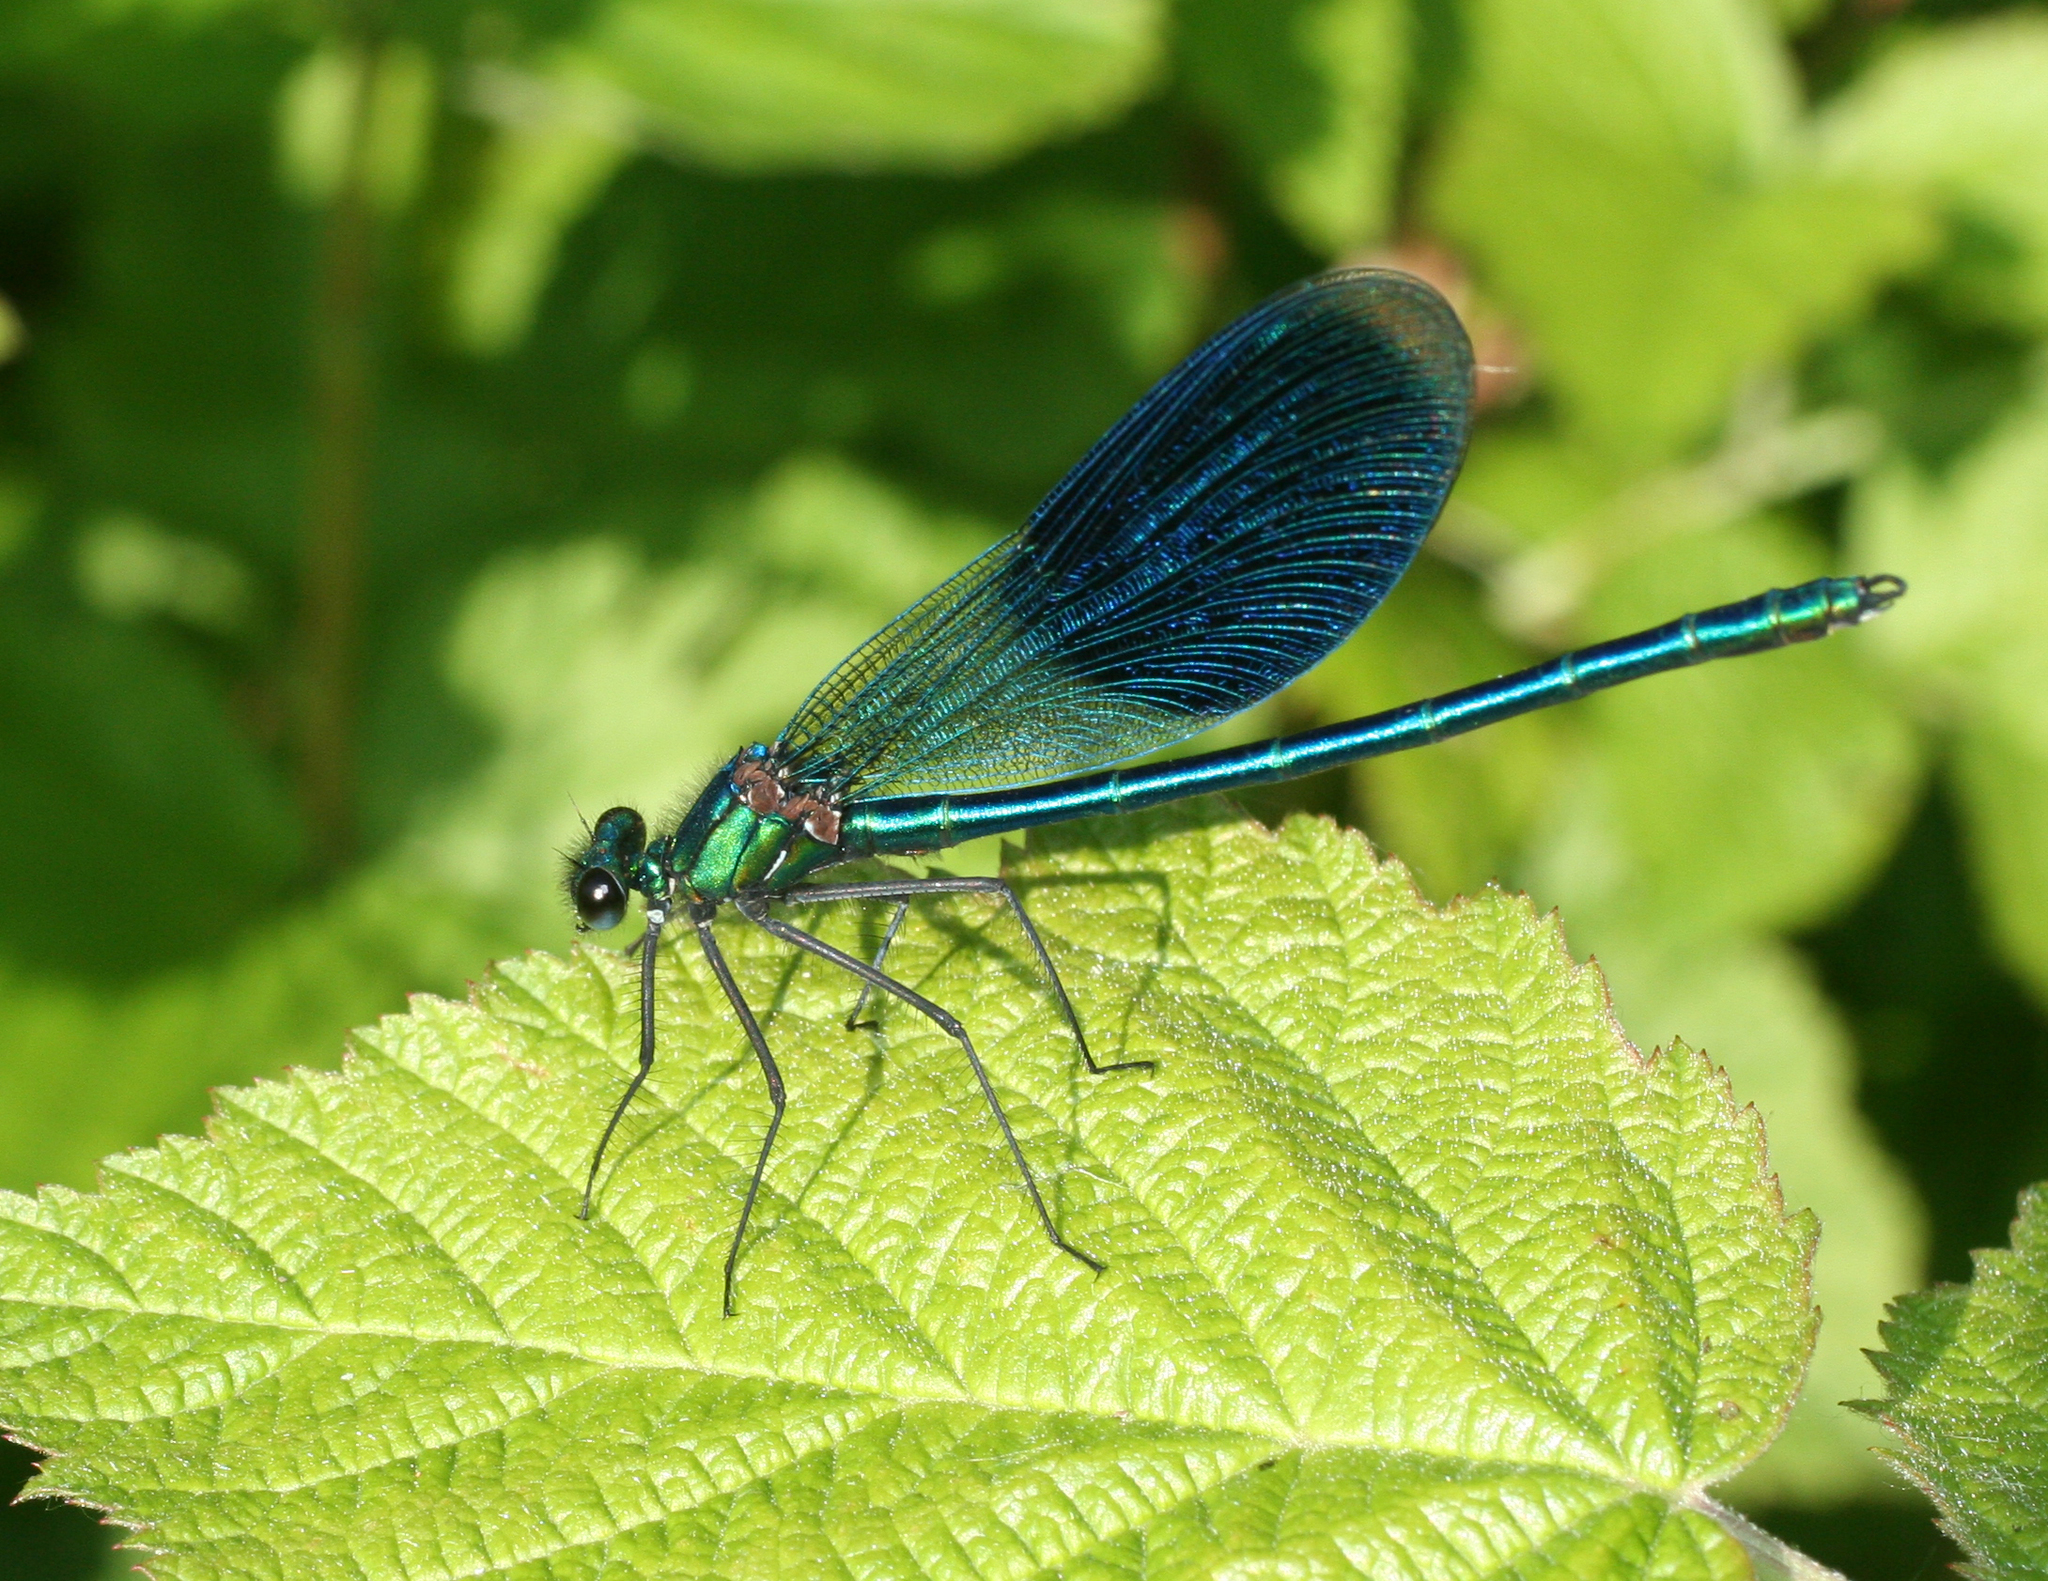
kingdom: Animalia
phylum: Arthropoda
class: Insecta
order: Odonata
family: Calopterygidae
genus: Calopteryx
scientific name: Calopteryx splendens
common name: Banded demoiselle
